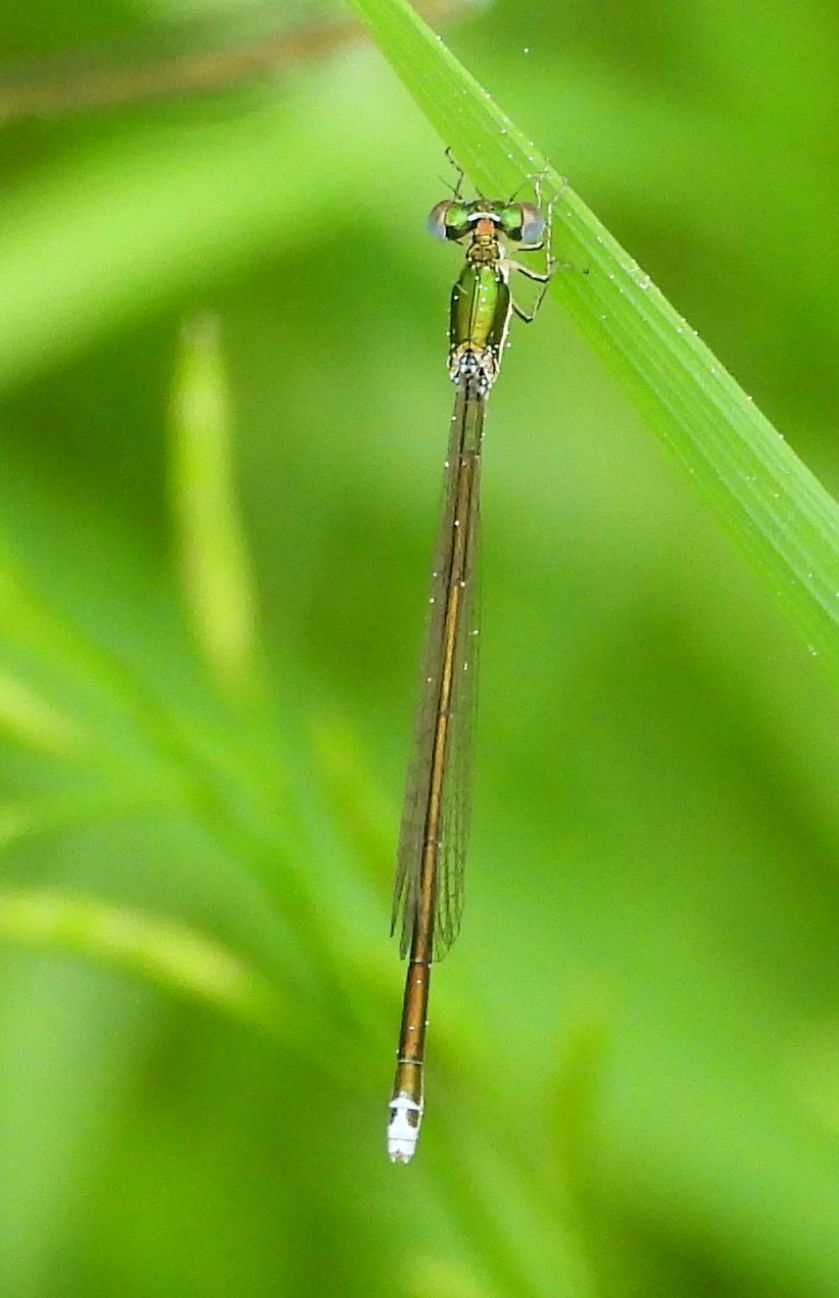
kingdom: Animalia
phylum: Arthropoda
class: Insecta
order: Odonata
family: Coenagrionidae
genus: Nehalennia
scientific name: Nehalennia irene
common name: Sedge sprite
